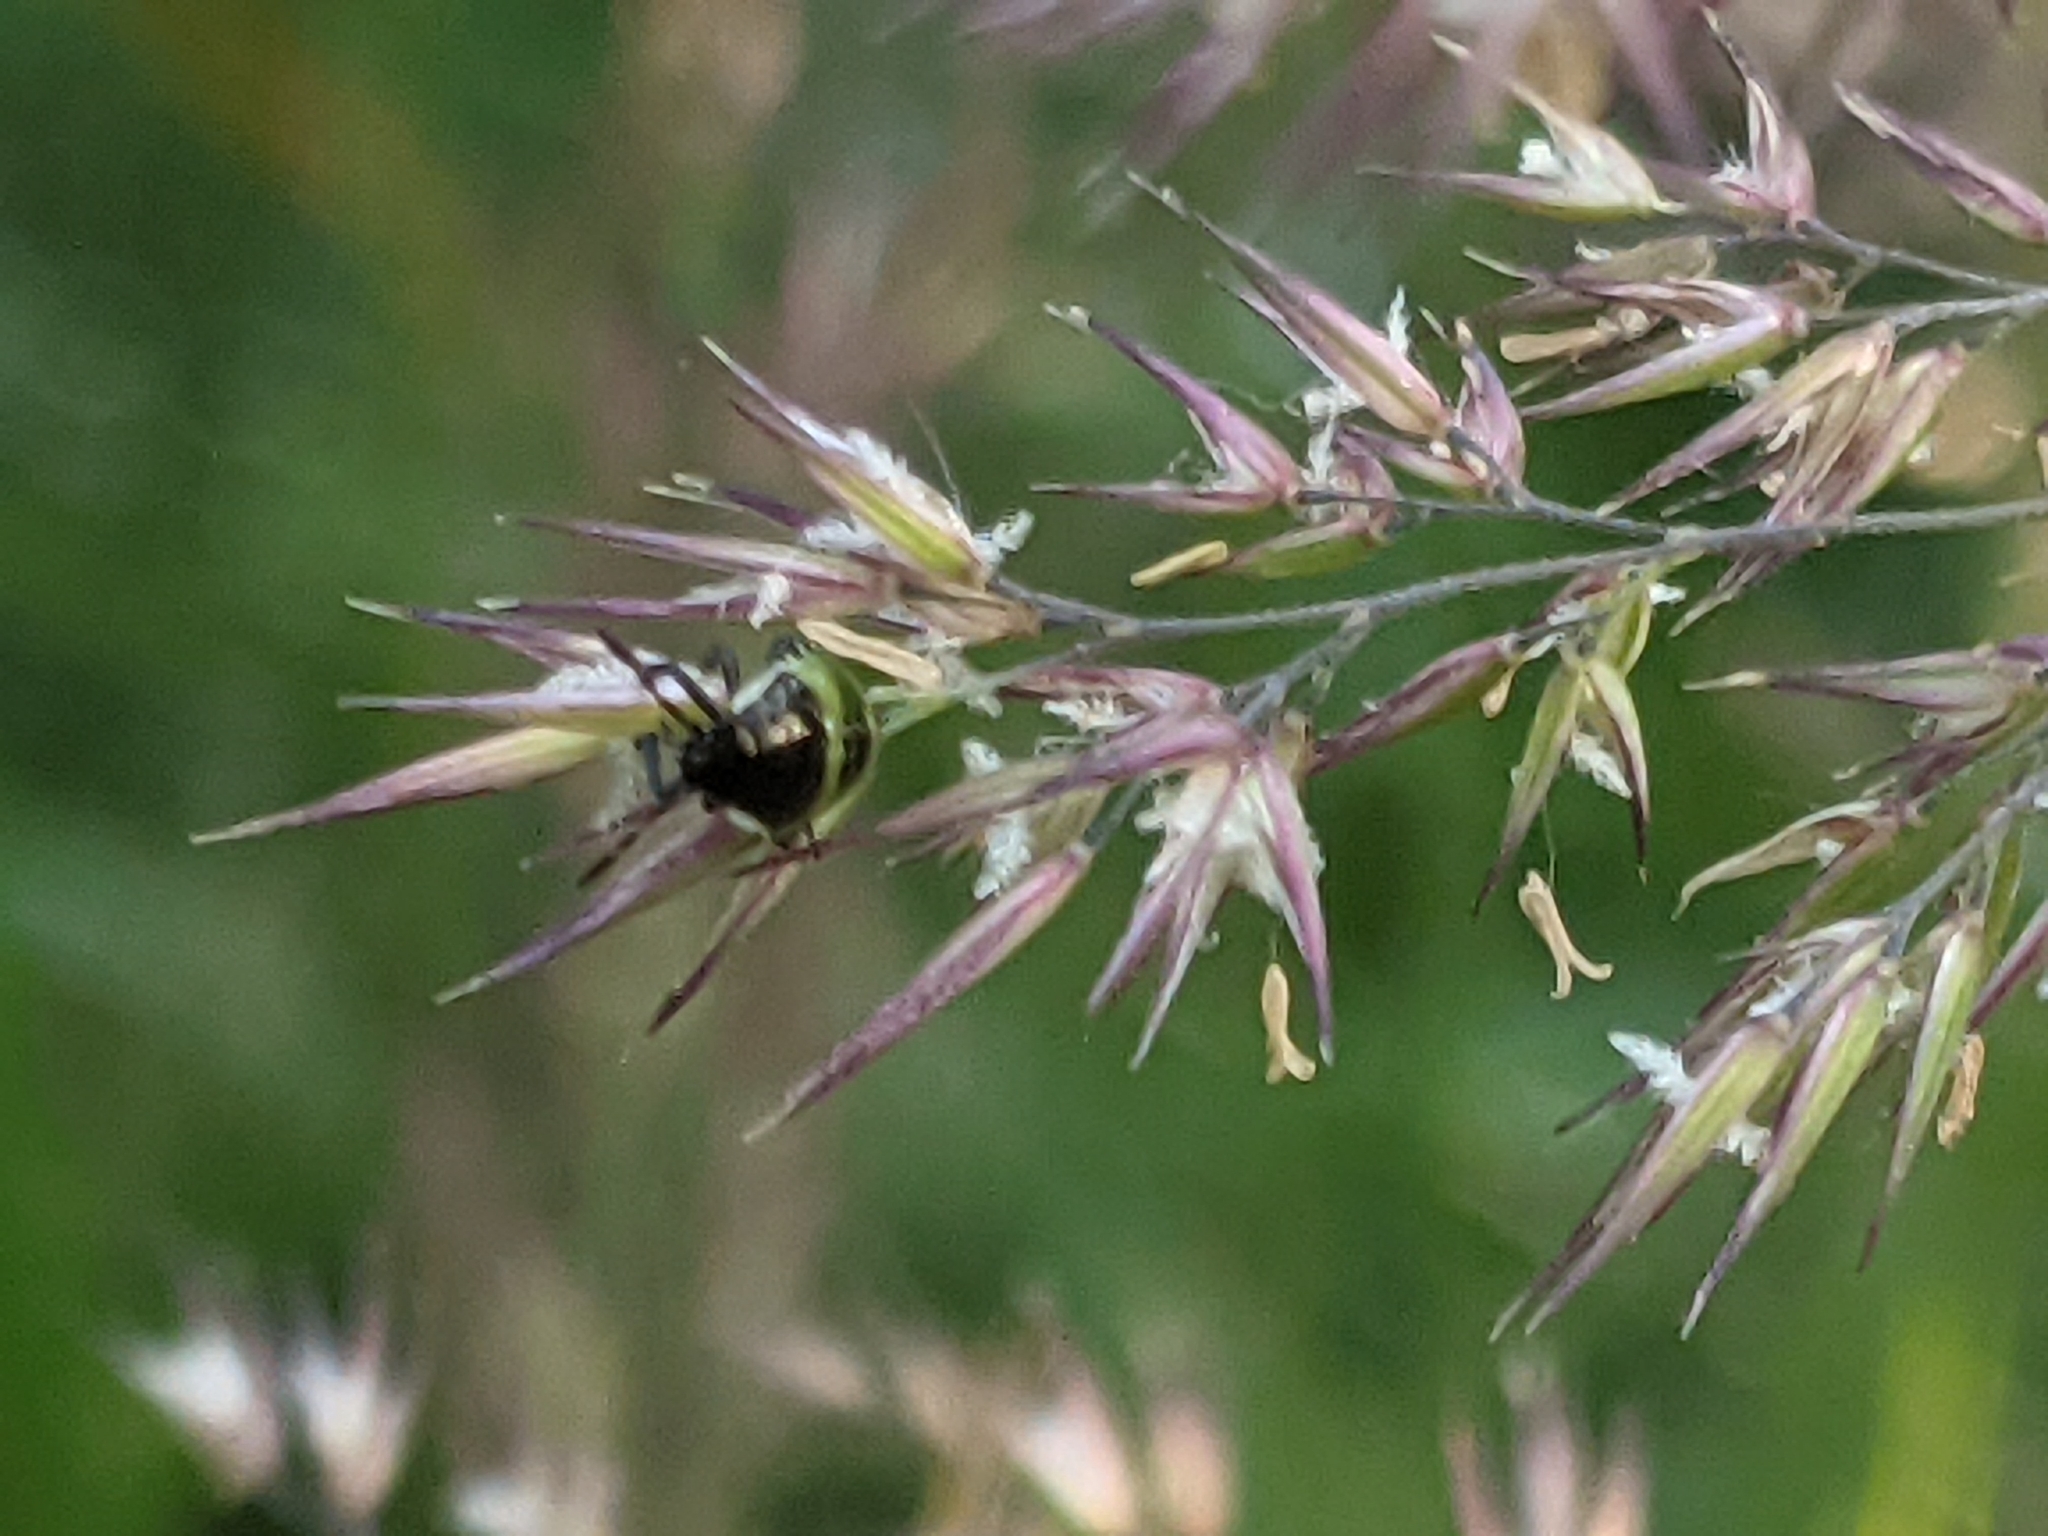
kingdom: Animalia
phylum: Arthropoda
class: Insecta
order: Hemiptera
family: Pentatomidae
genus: Palomena
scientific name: Palomena prasina
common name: Green shieldbug
